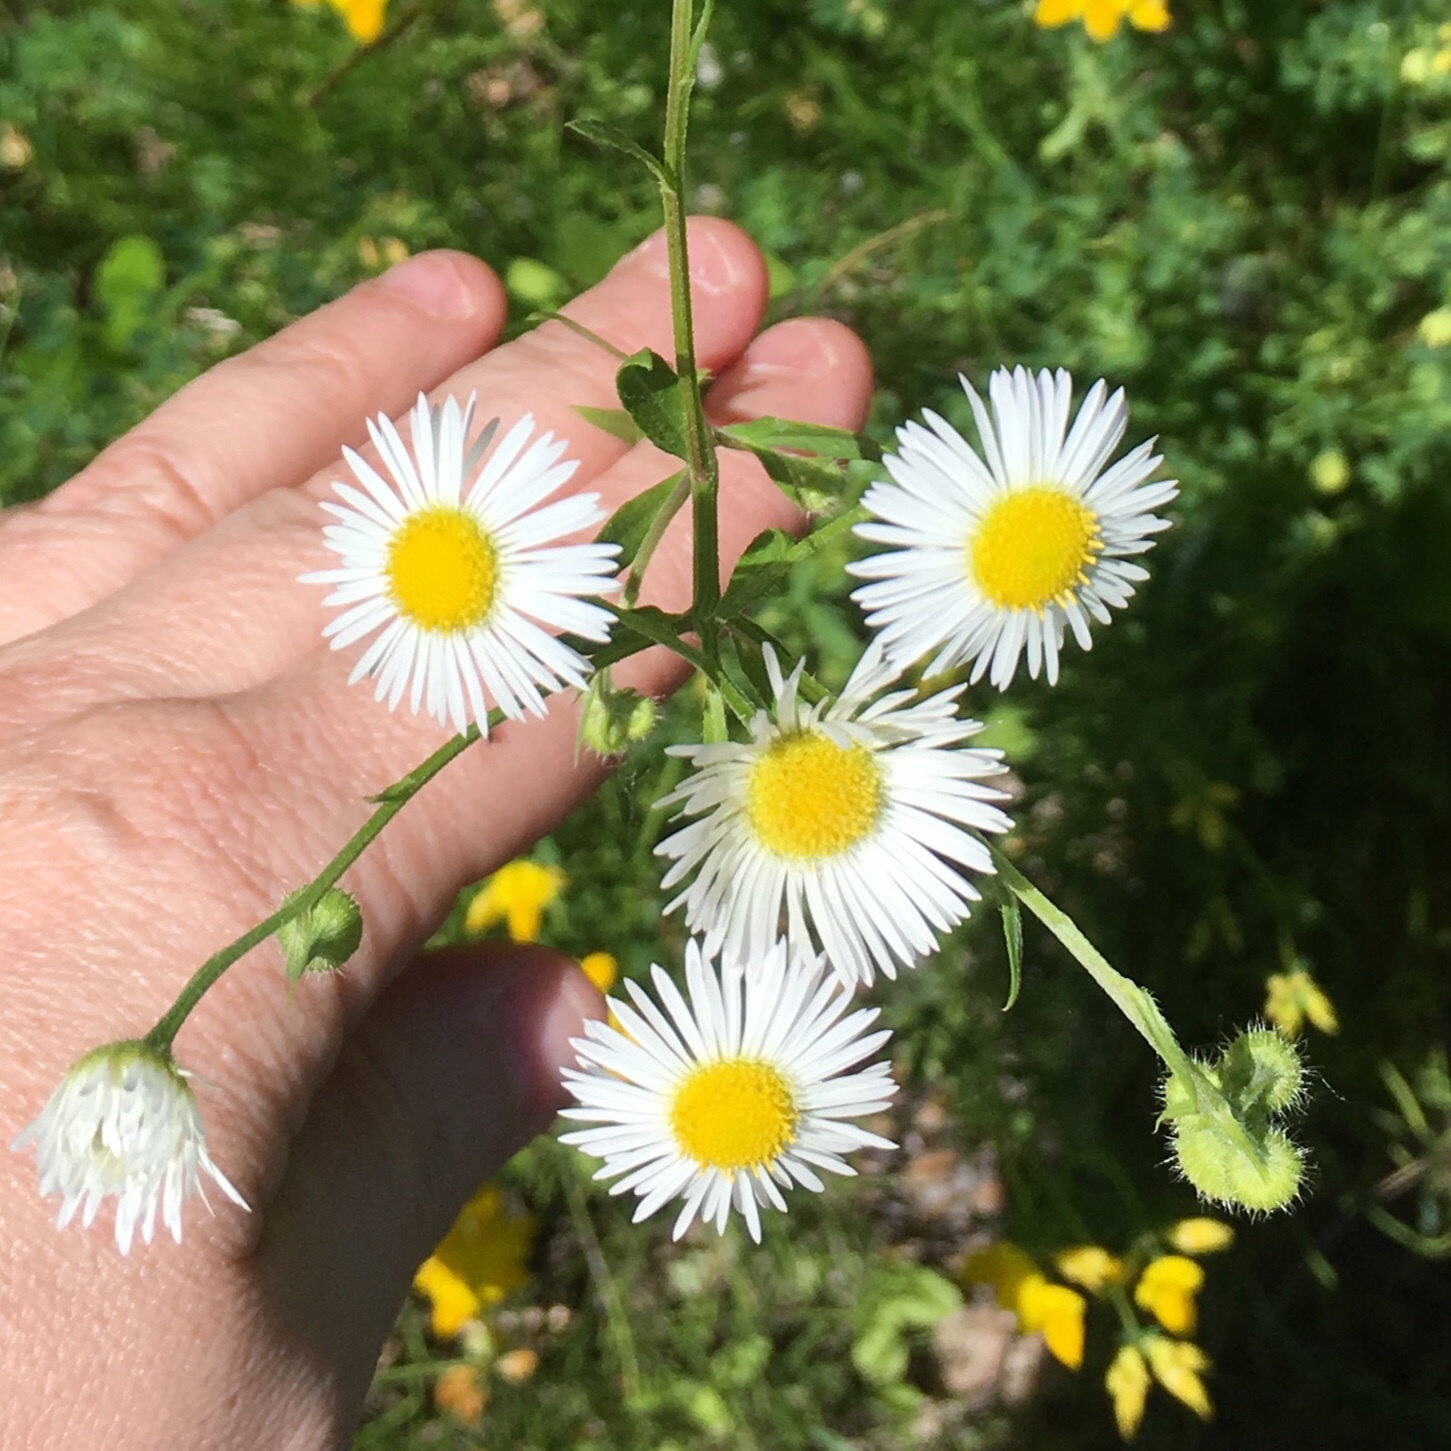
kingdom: Plantae
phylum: Tracheophyta
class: Magnoliopsida
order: Asterales
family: Asteraceae
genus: Erigeron
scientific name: Erigeron strigosus
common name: Common eastern fleabane
